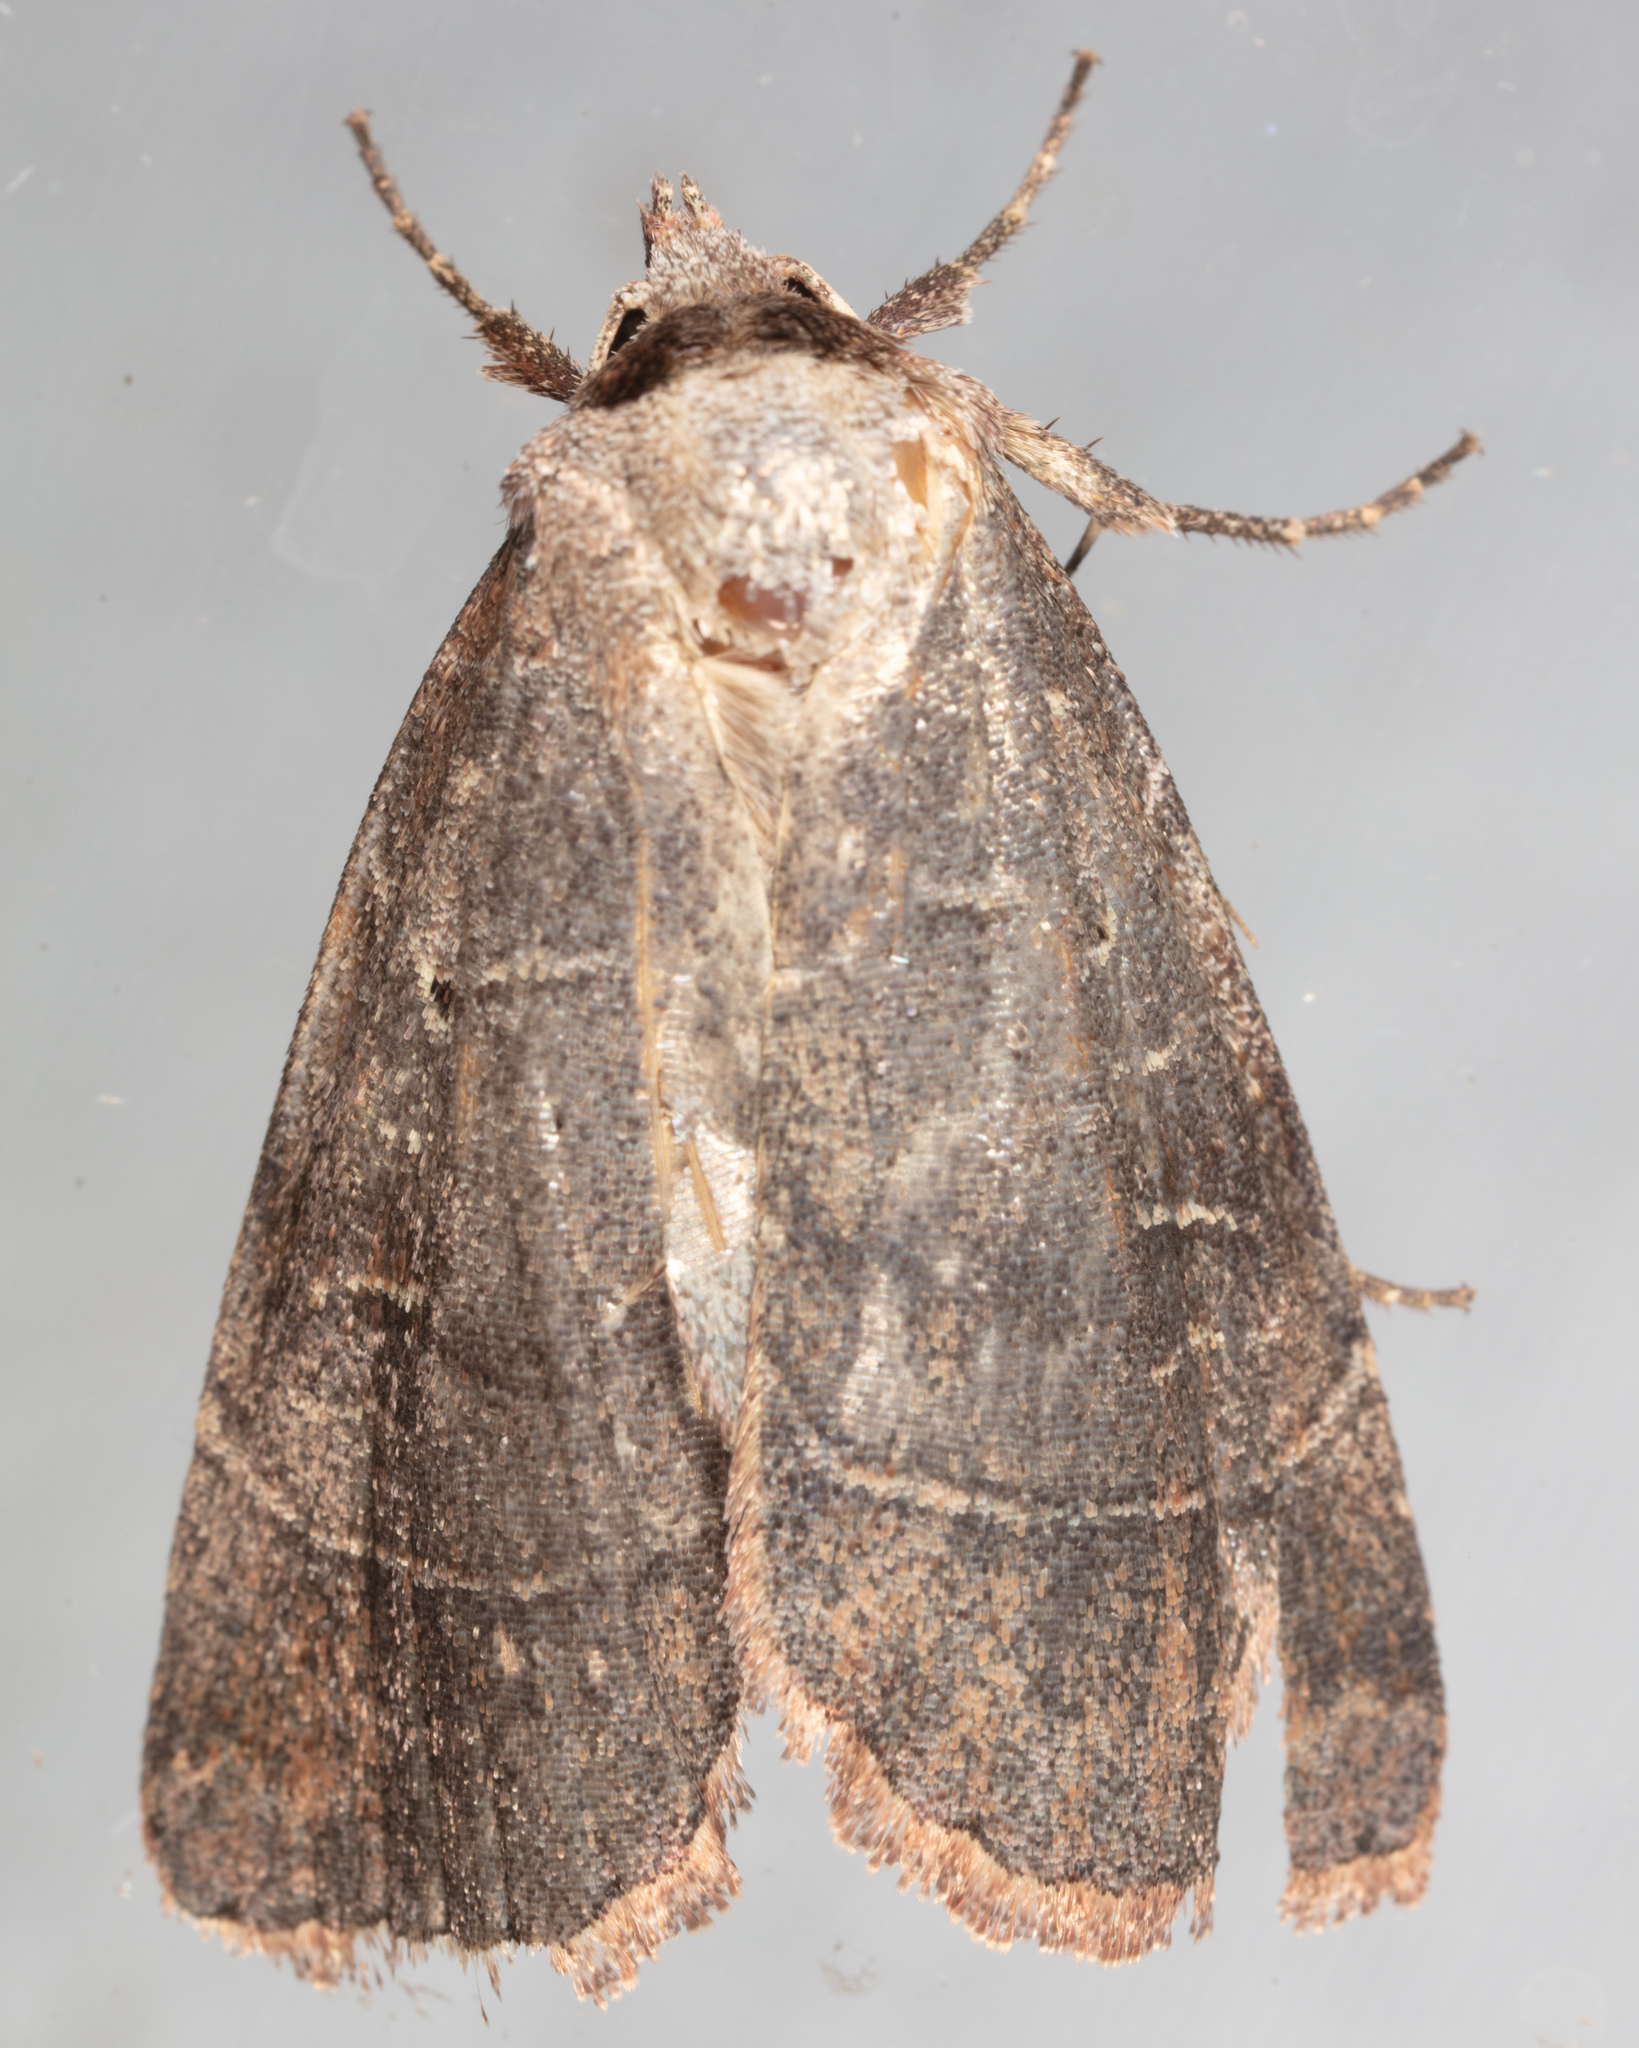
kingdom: Animalia
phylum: Arthropoda
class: Insecta
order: Lepidoptera
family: Noctuidae
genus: Agnorisma
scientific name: Agnorisma badinodis
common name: Pale-banded dart
